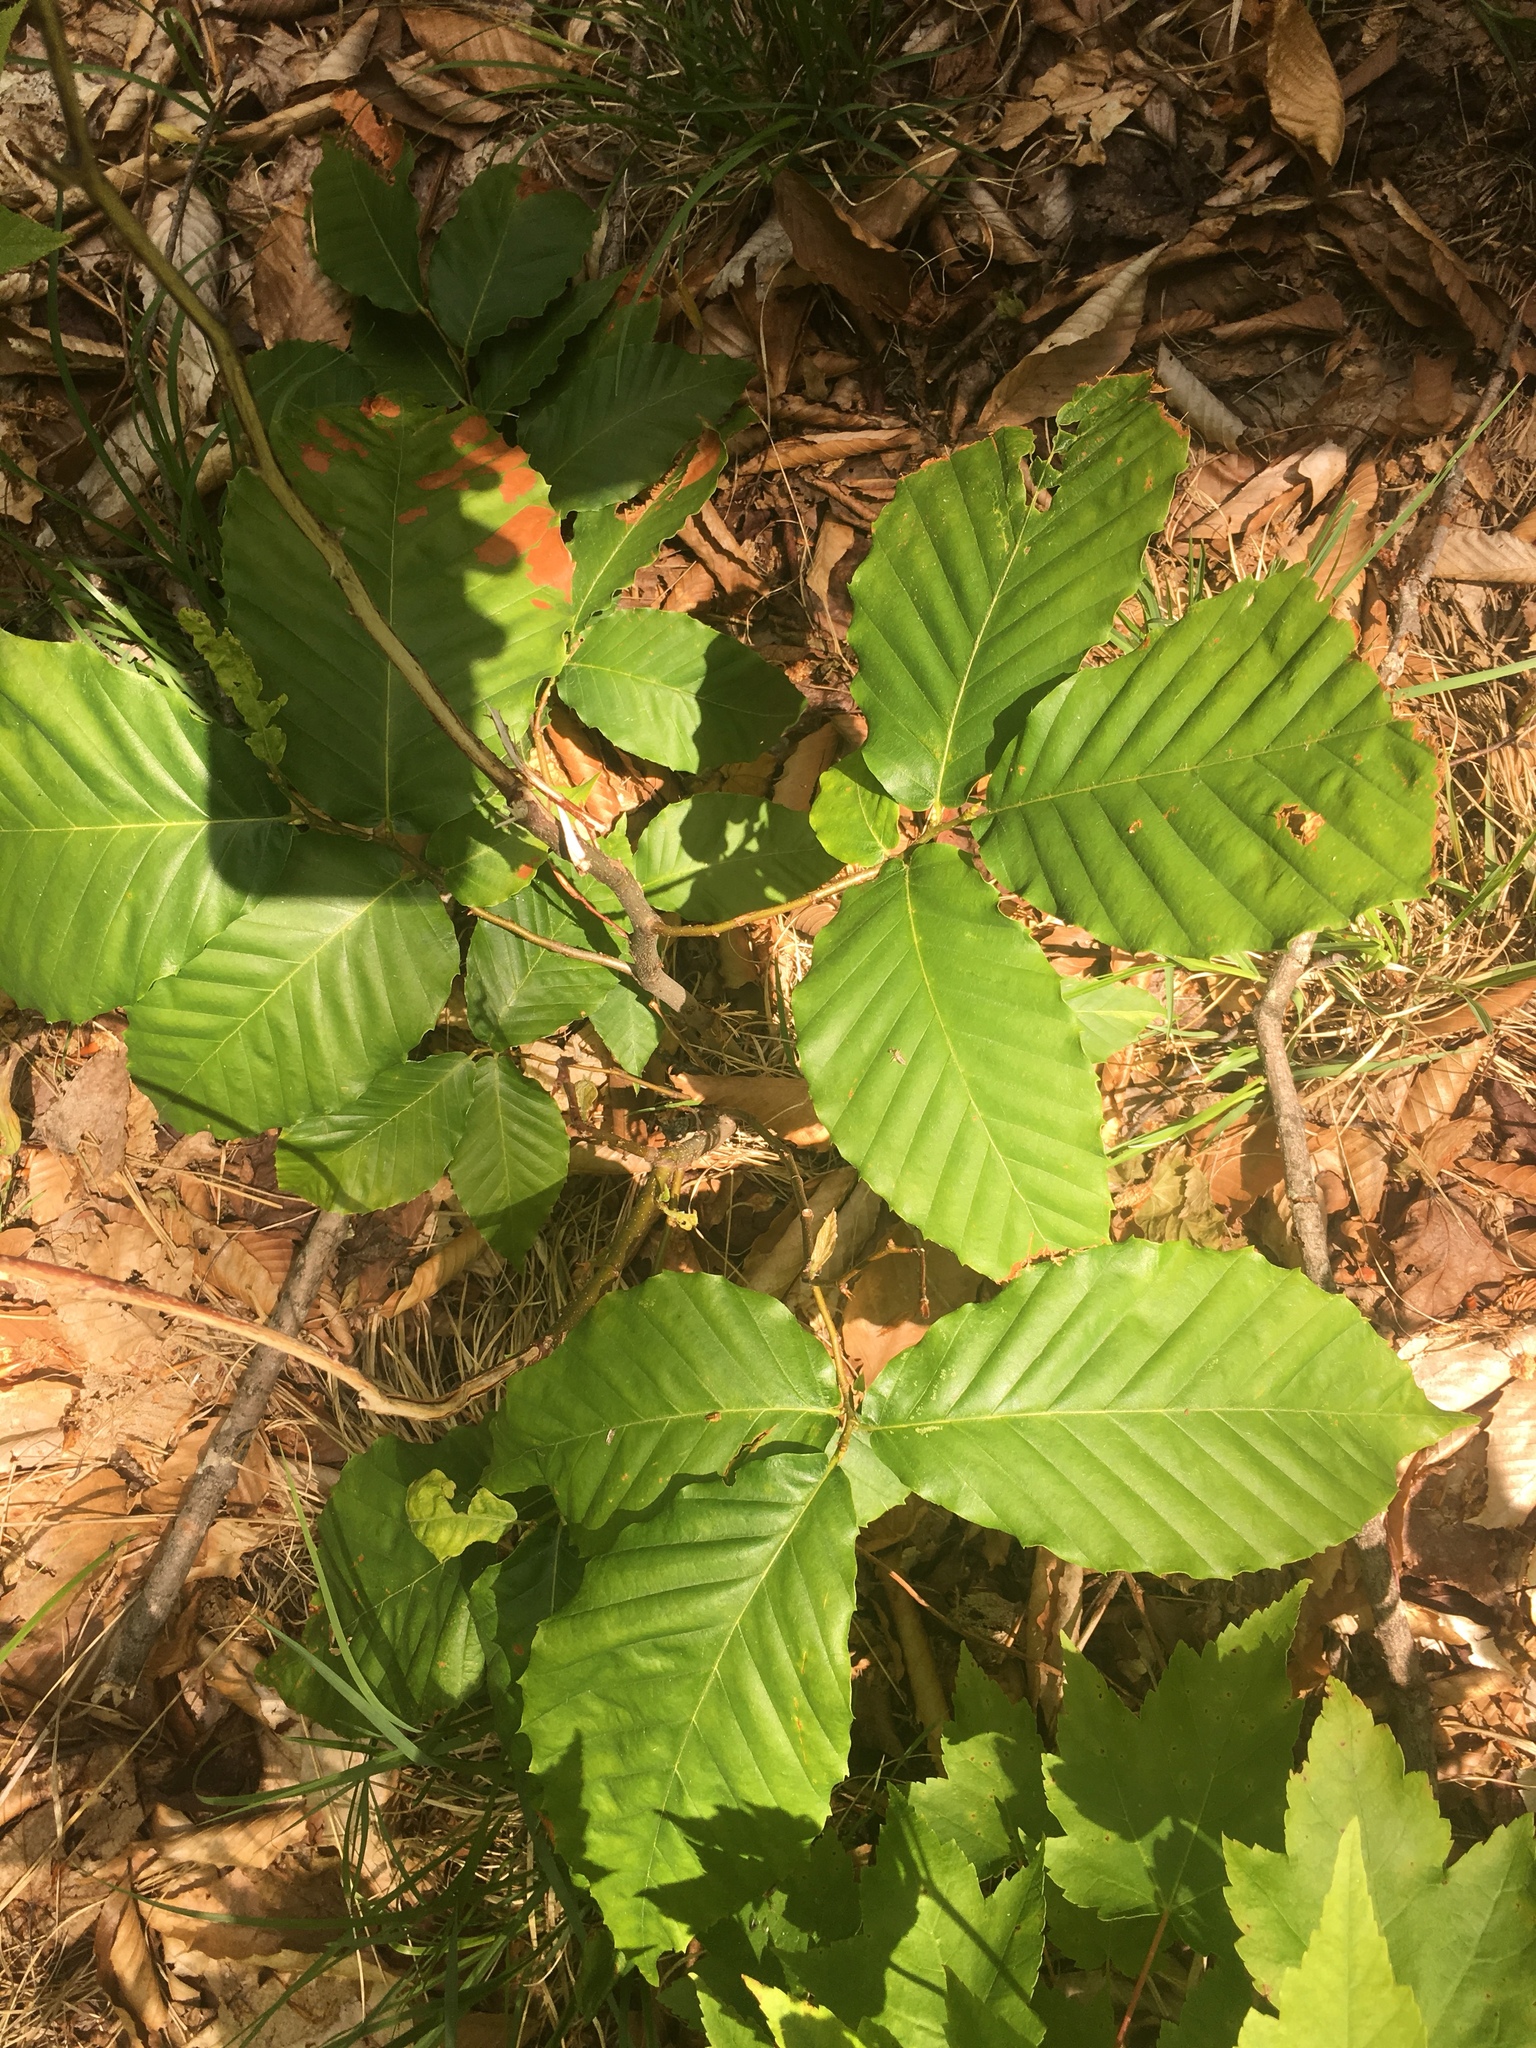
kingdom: Plantae
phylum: Tracheophyta
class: Magnoliopsida
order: Fagales
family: Fagaceae
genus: Fagus
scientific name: Fagus grandifolia
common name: American beech
